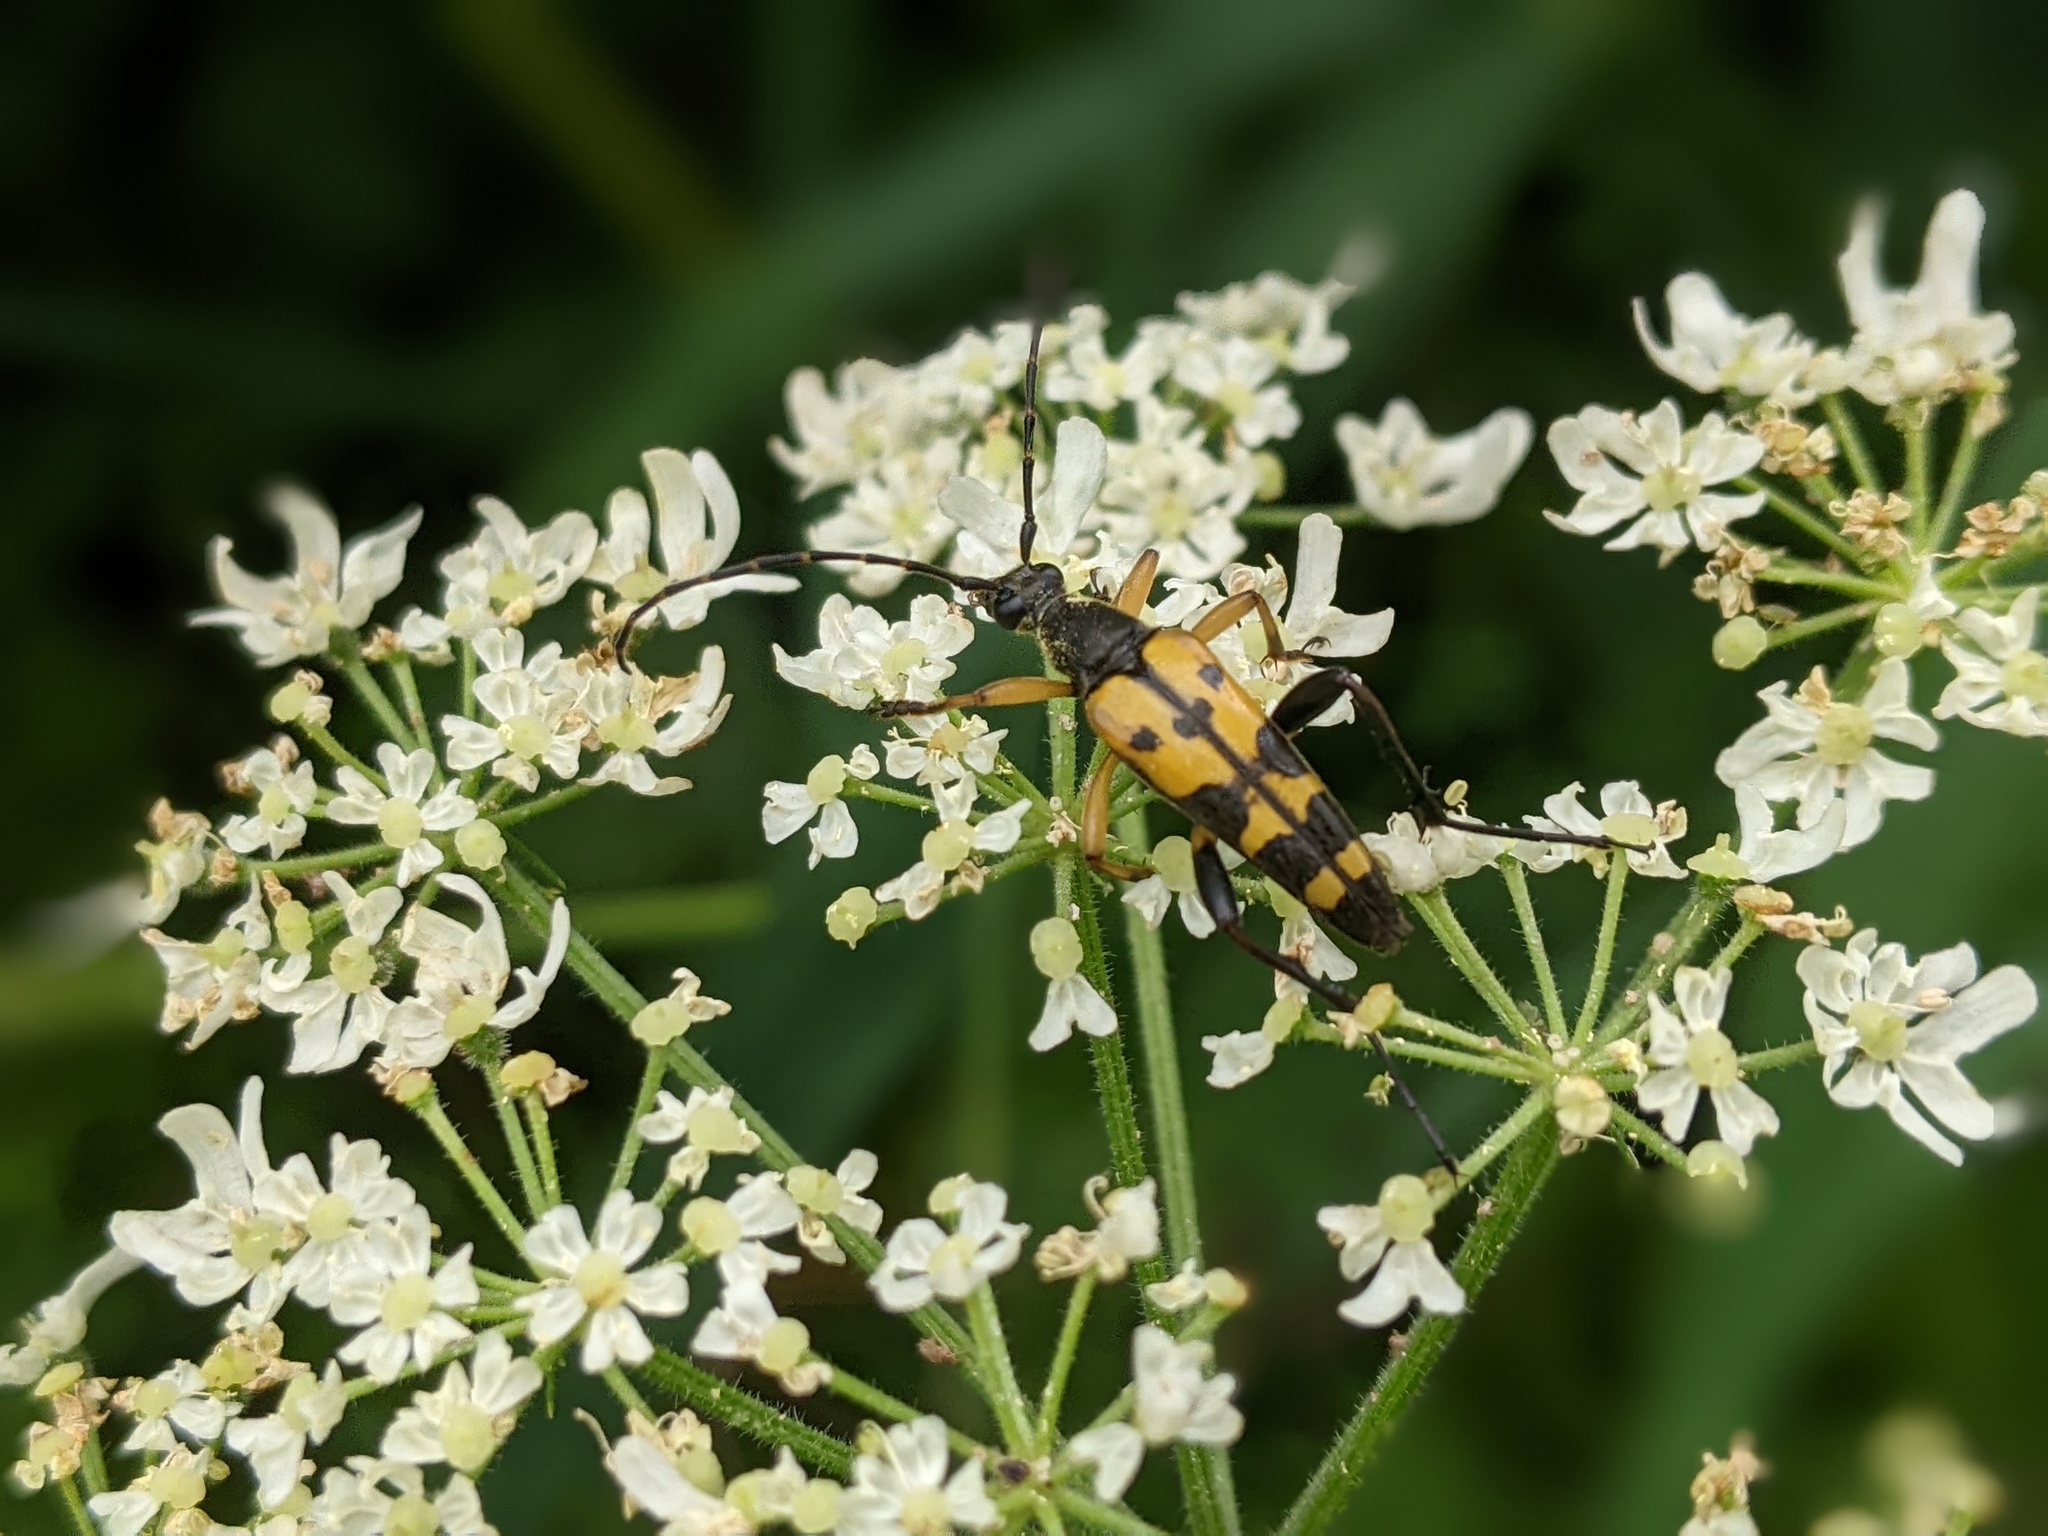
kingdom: Animalia
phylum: Arthropoda
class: Insecta
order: Coleoptera
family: Cerambycidae
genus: Rutpela
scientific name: Rutpela maculata
